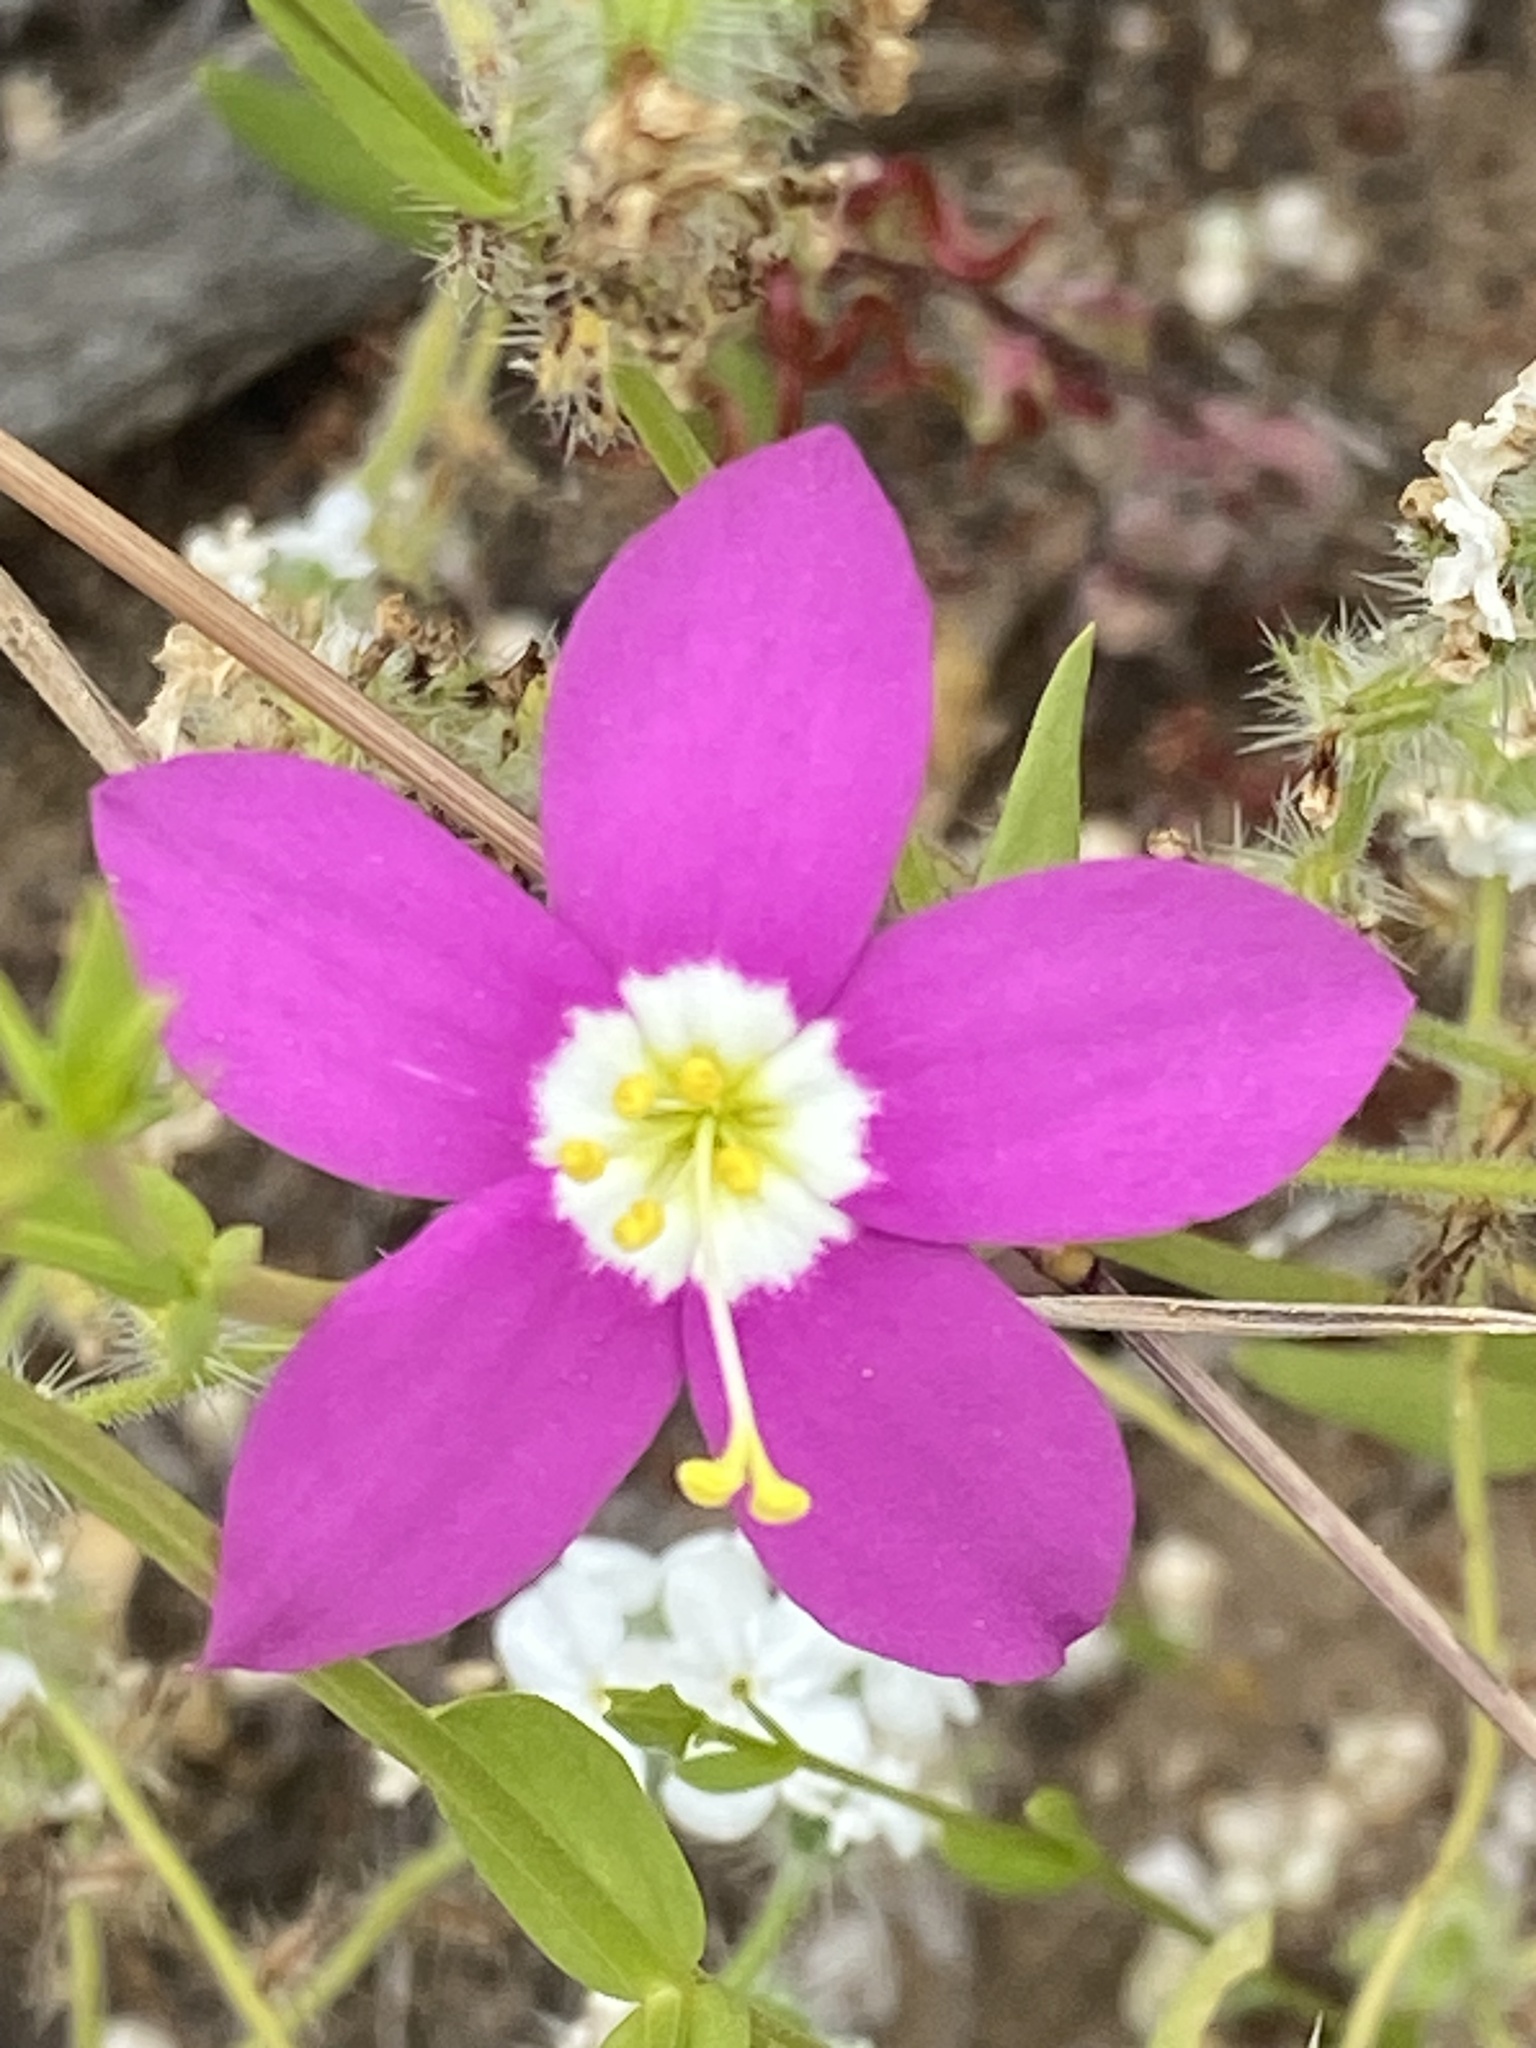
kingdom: Plantae
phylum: Tracheophyta
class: Magnoliopsida
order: Gentianales
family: Gentianaceae
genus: Zeltnera
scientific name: Zeltnera venusta
